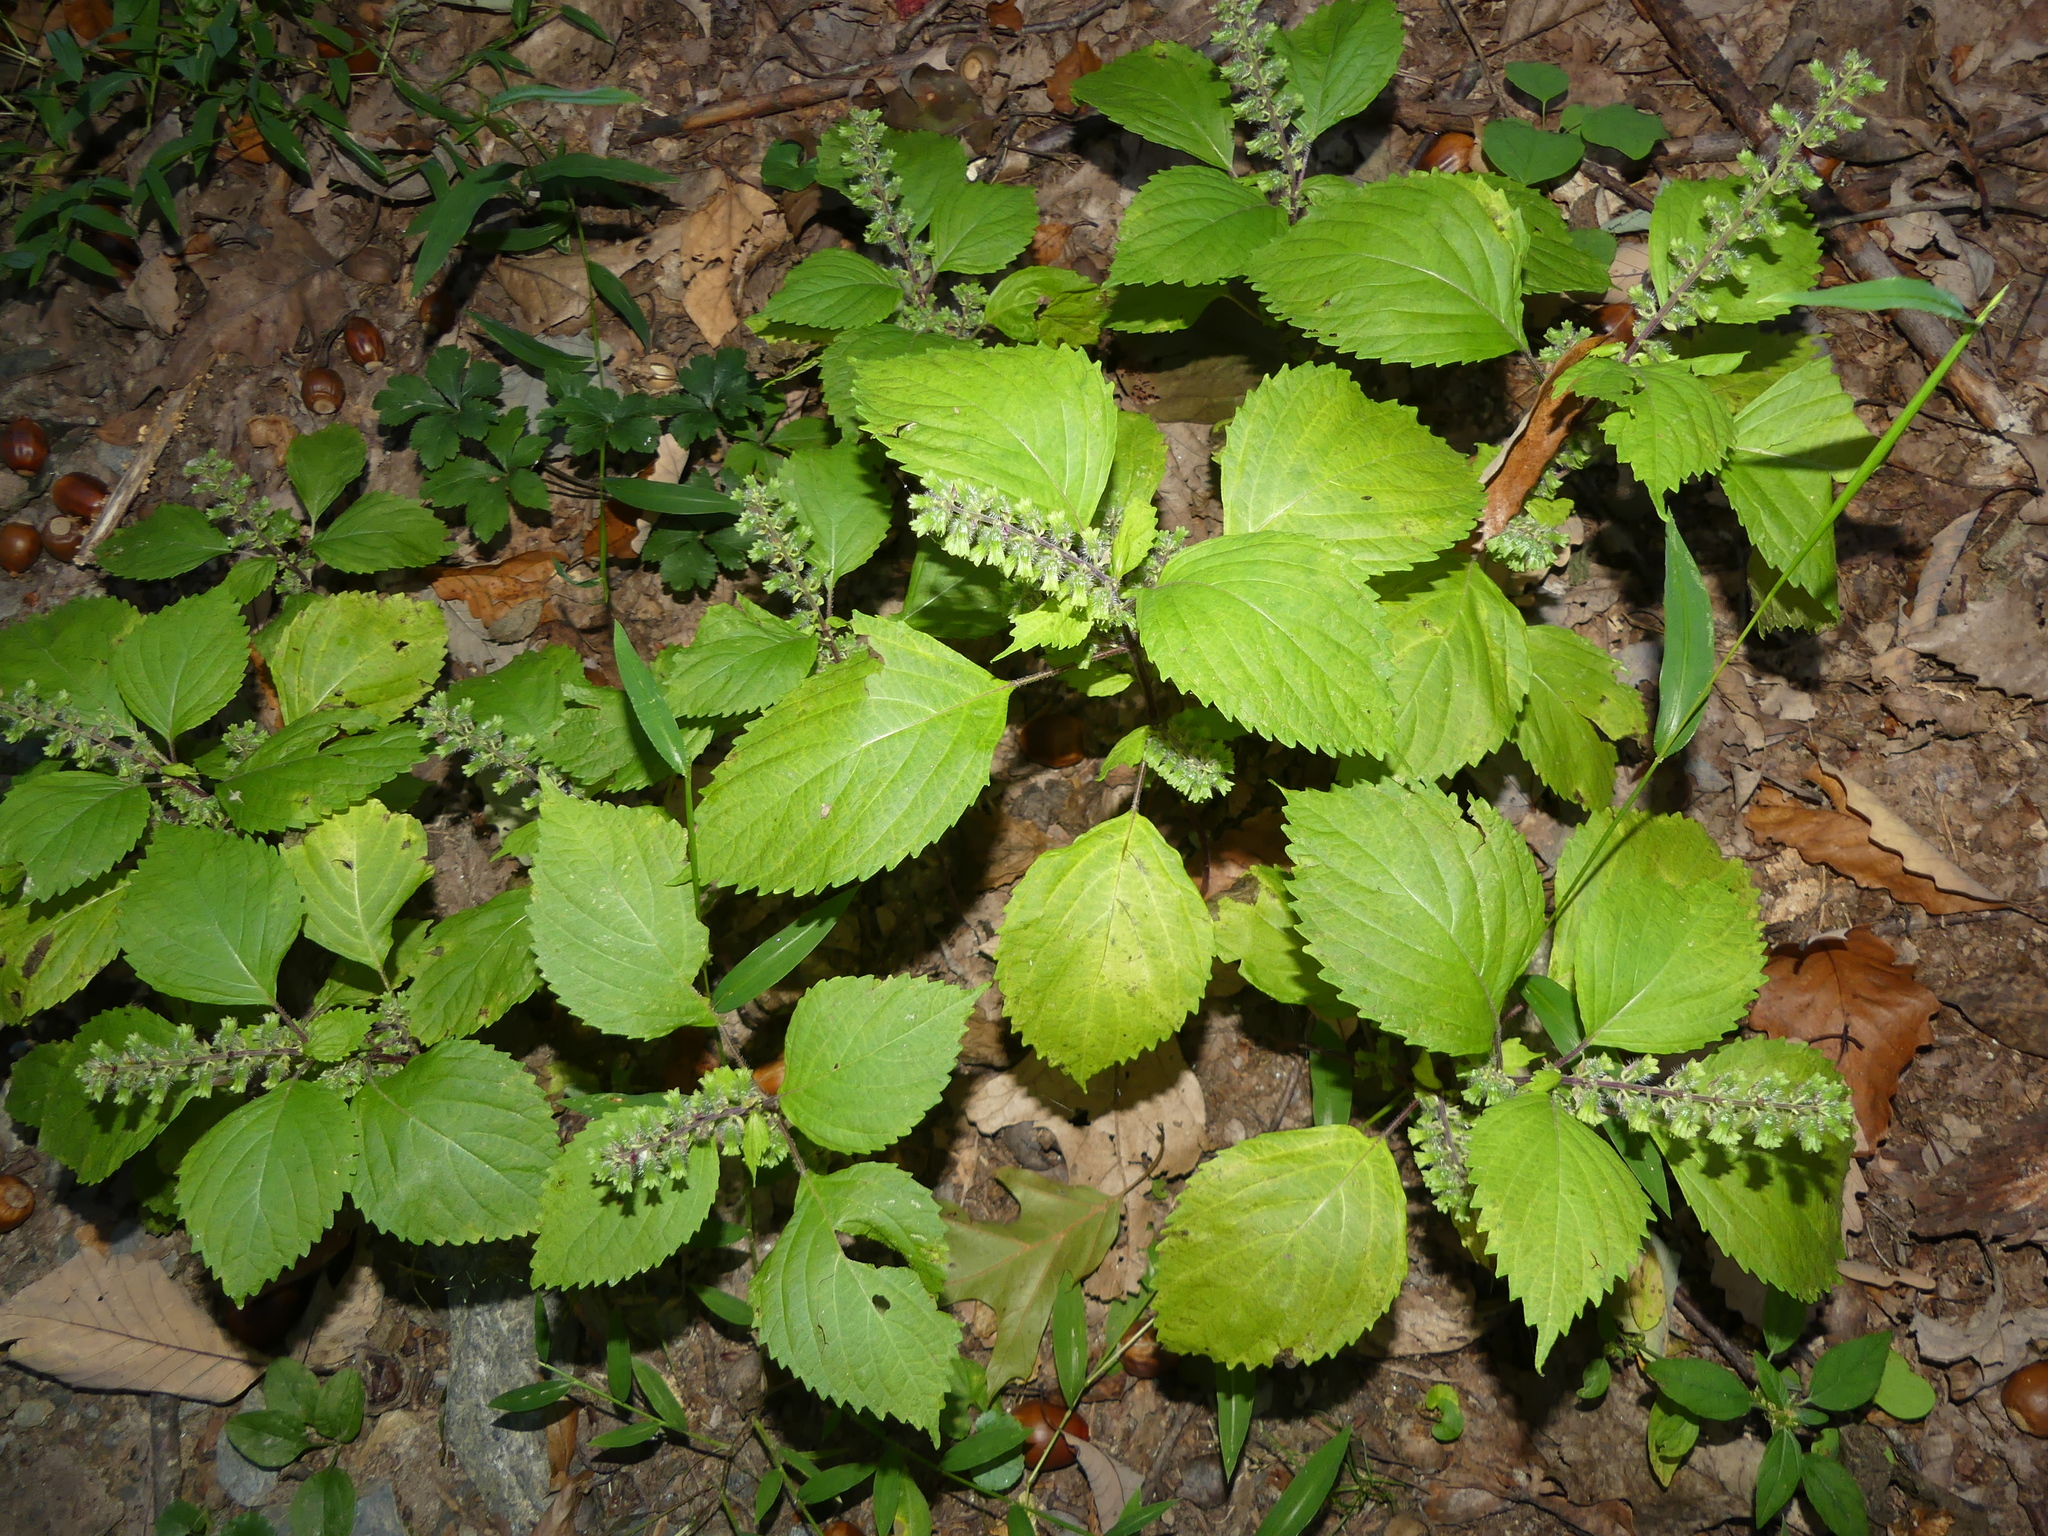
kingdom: Plantae
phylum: Tracheophyta
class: Magnoliopsida
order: Lamiales
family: Lamiaceae
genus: Perilla
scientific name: Perilla frutescens
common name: Perilla
